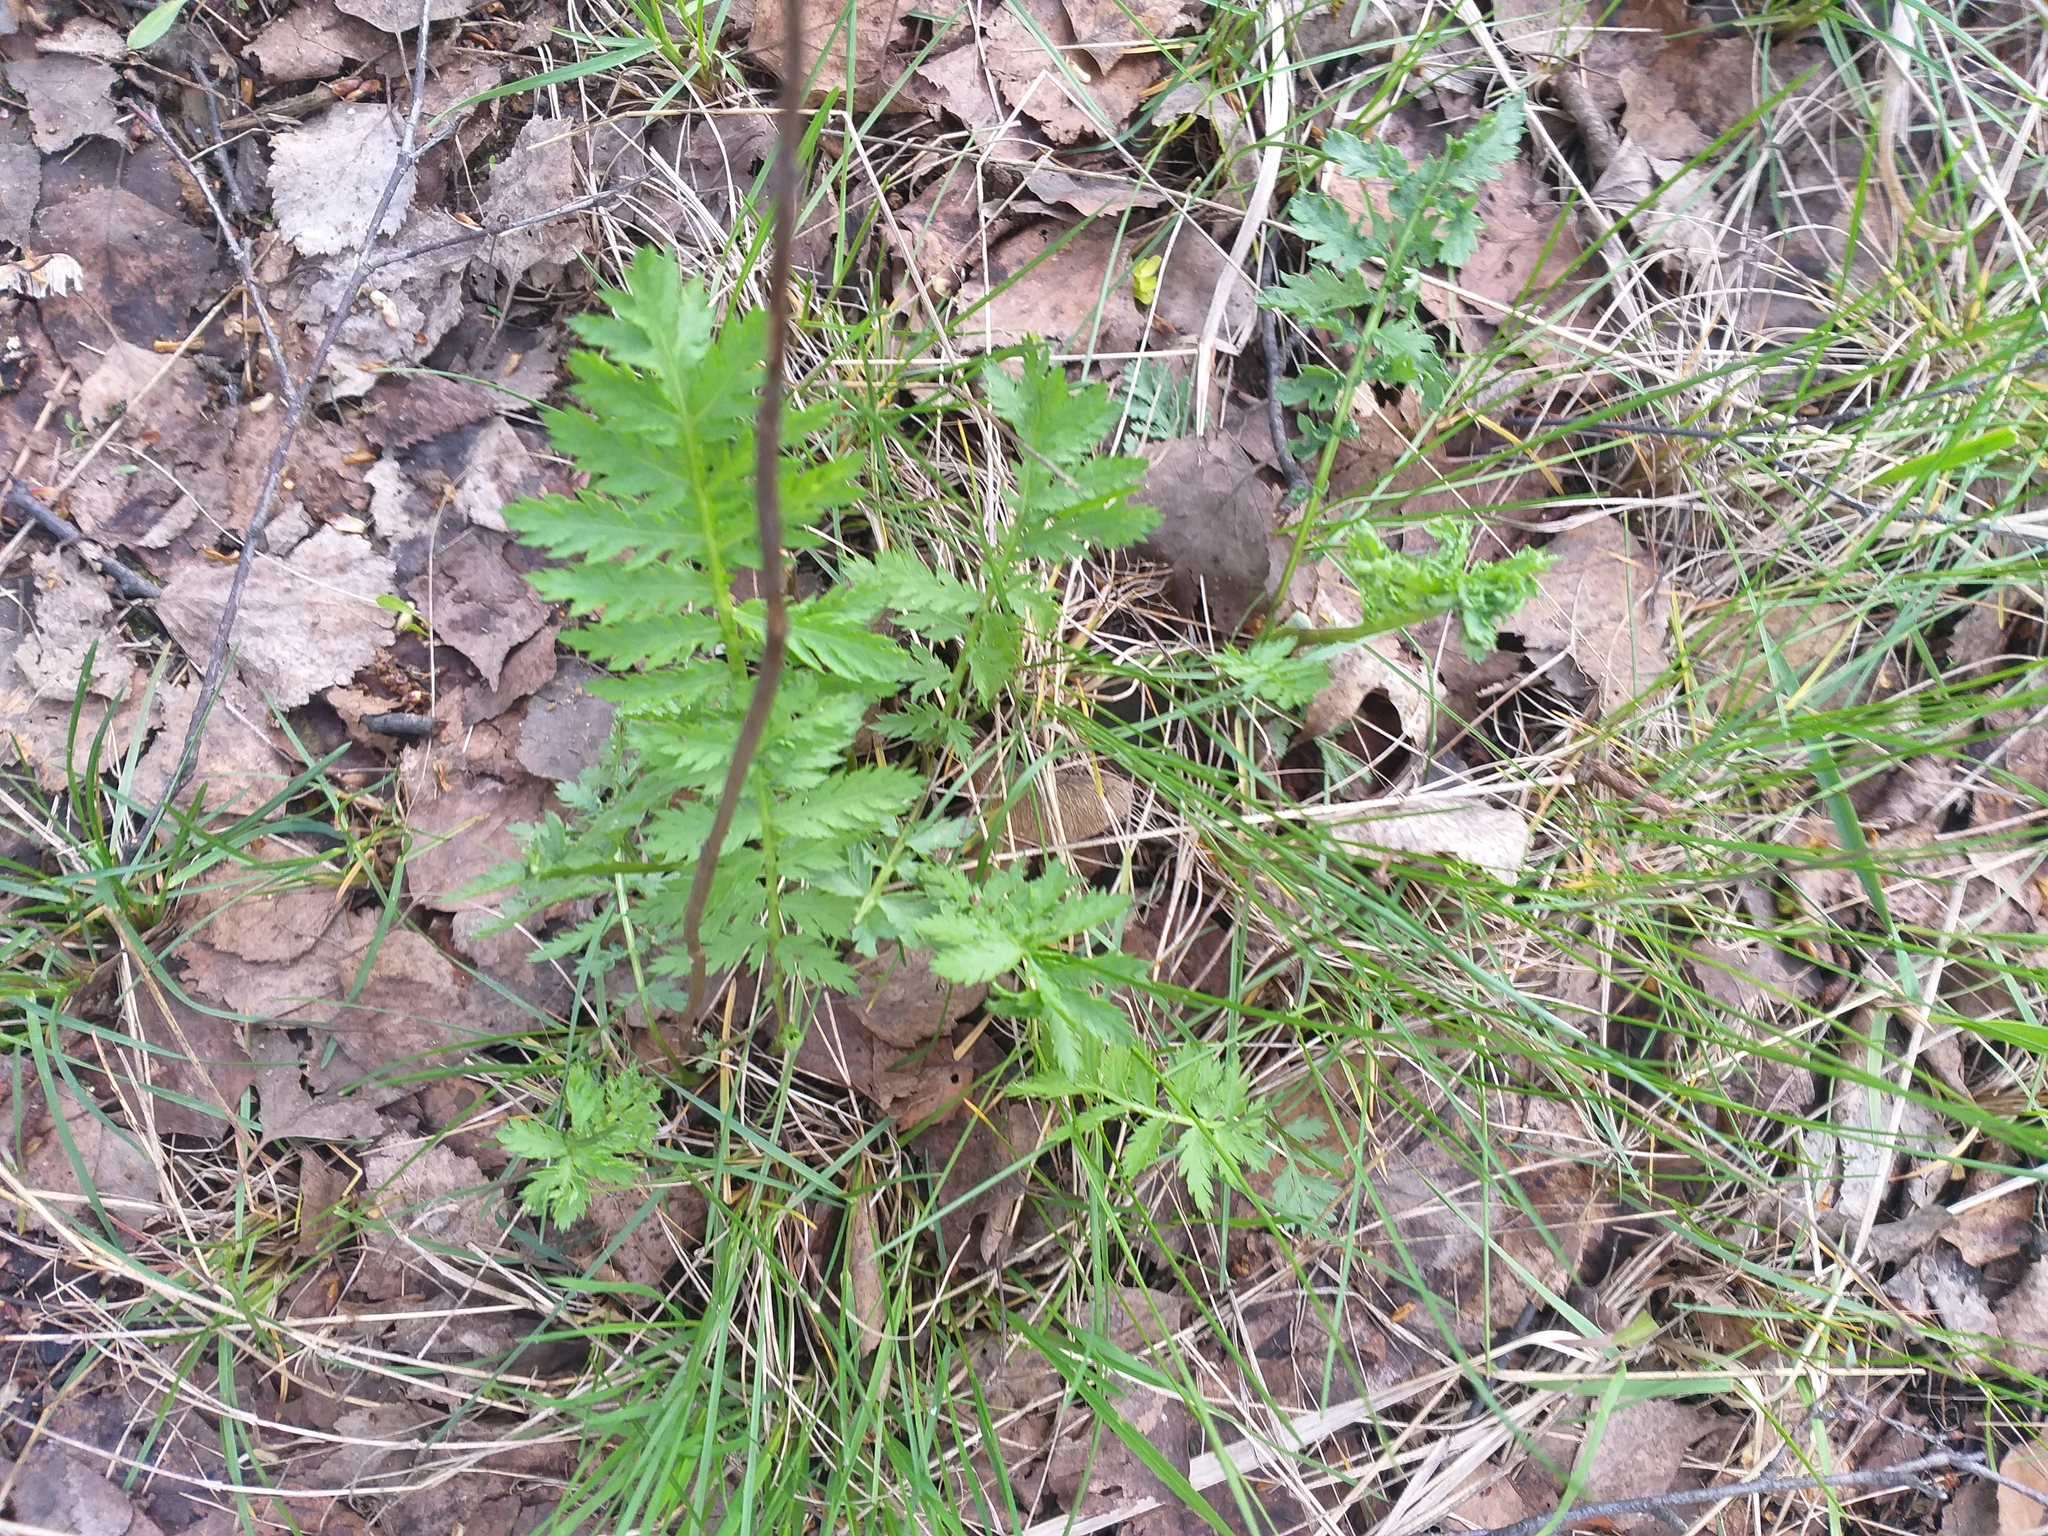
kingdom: Plantae
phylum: Tracheophyta
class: Magnoliopsida
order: Asterales
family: Asteraceae
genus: Tanacetum
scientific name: Tanacetum vulgare
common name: Common tansy
